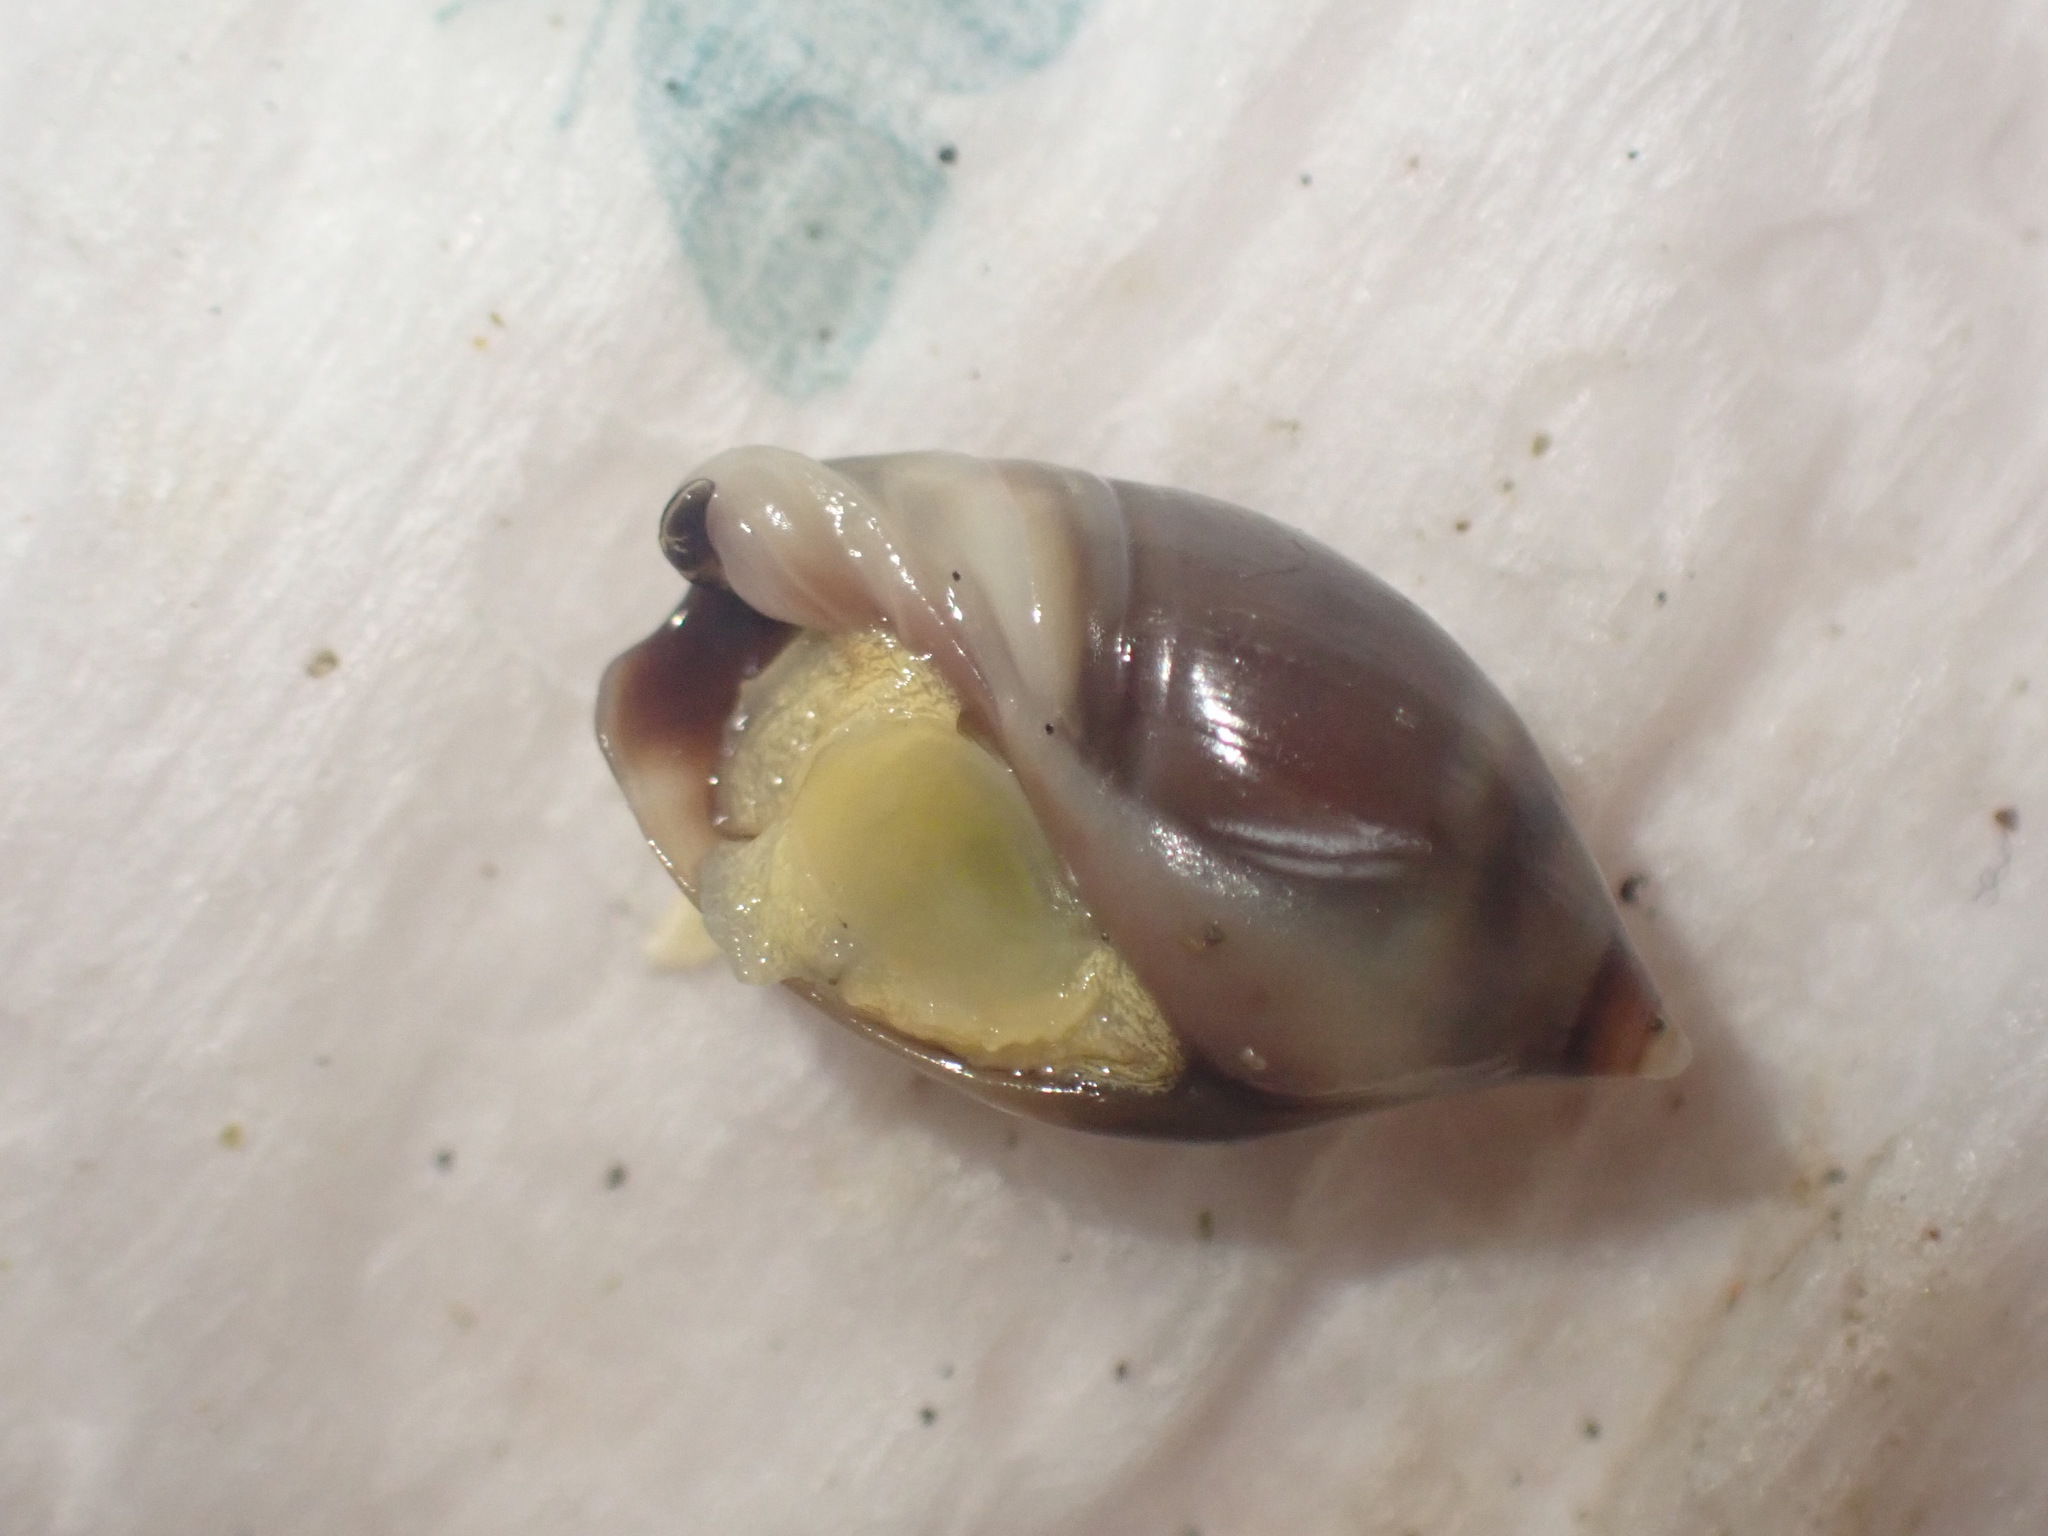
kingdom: Animalia
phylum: Mollusca
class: Gastropoda
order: Neogastropoda
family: Ancillariidae
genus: Amalda
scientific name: Amalda depressa
